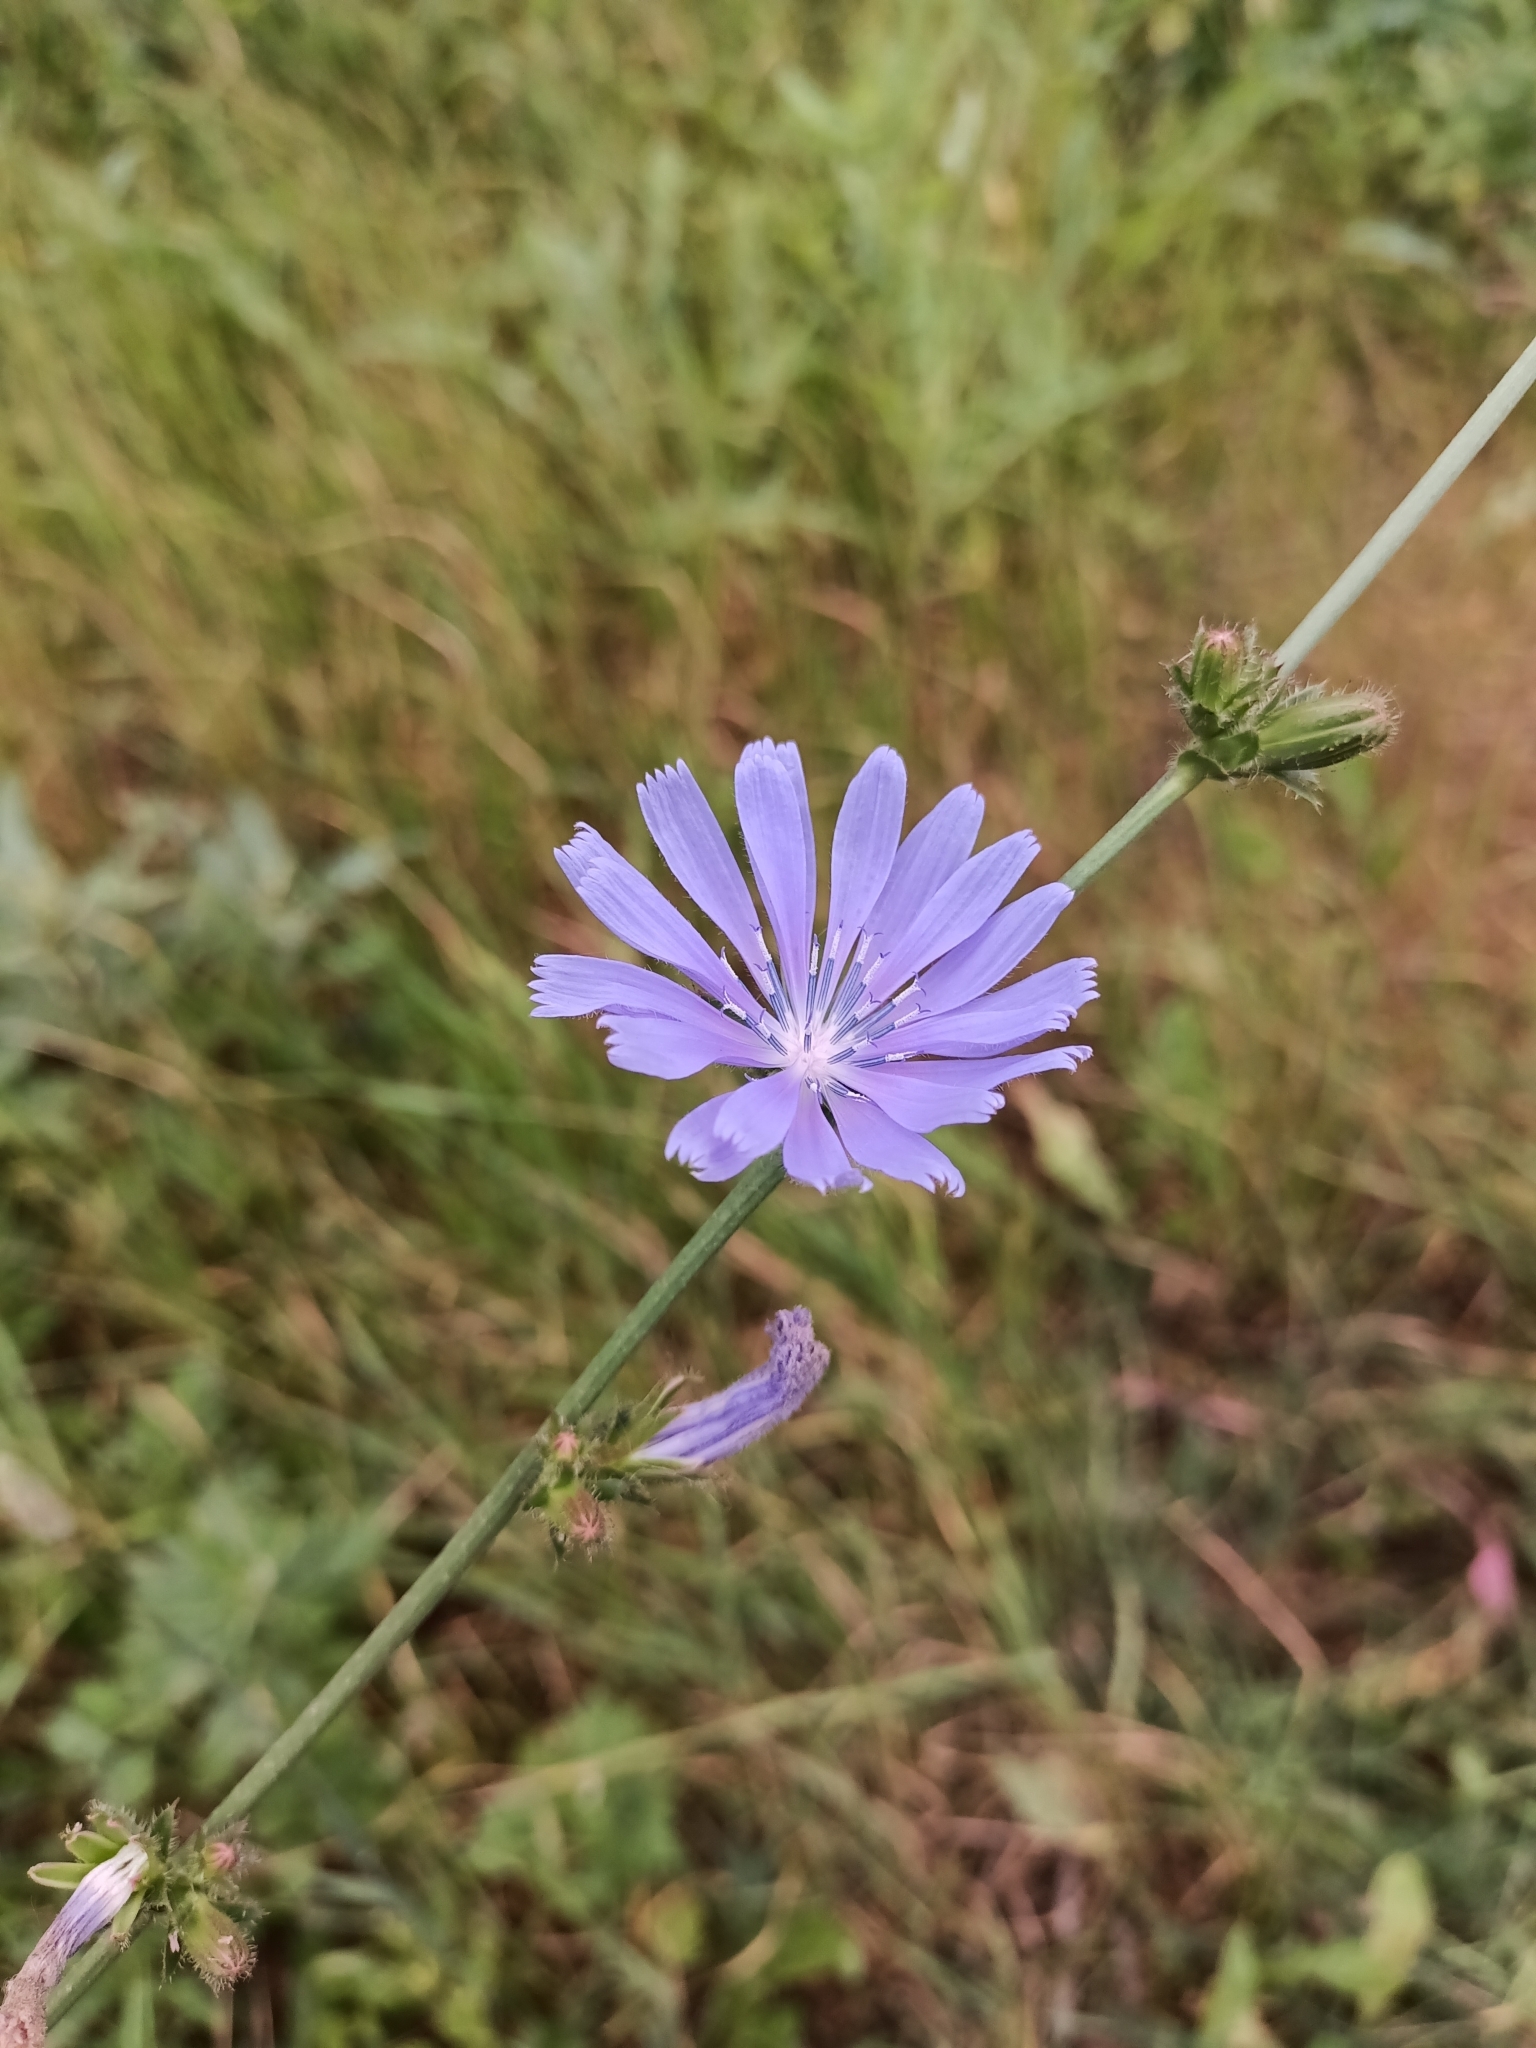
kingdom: Plantae
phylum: Tracheophyta
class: Magnoliopsida
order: Asterales
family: Asteraceae
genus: Cichorium
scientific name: Cichorium intybus
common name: Chicory
